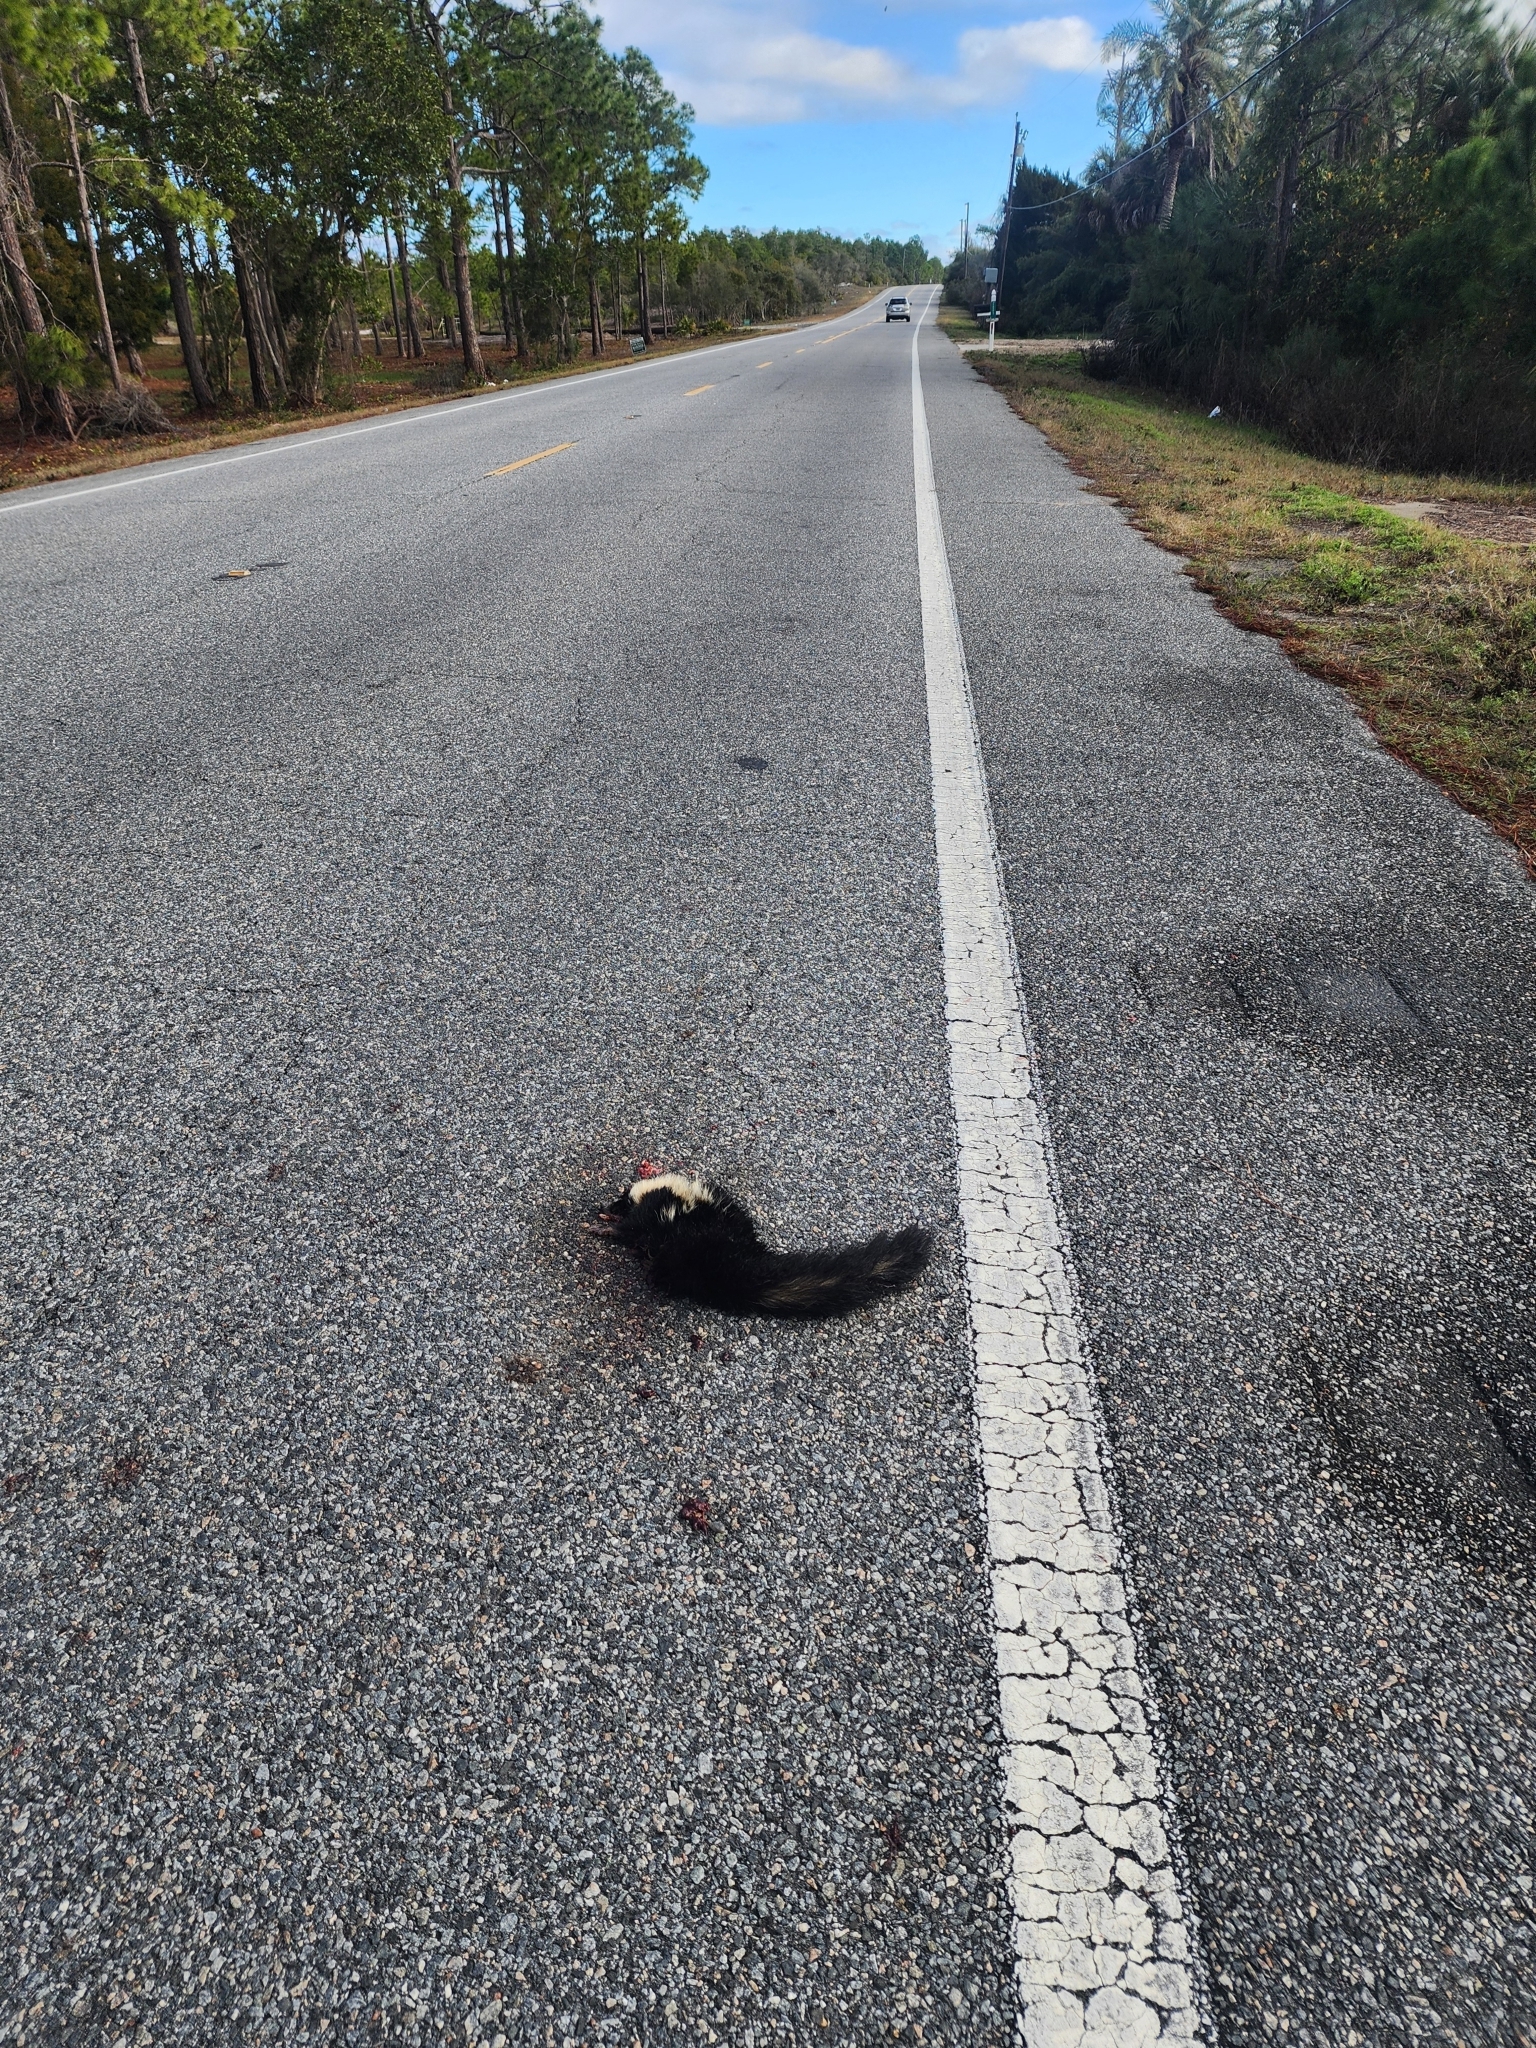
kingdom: Animalia
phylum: Chordata
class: Mammalia
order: Carnivora
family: Mephitidae
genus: Mephitis
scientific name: Mephitis mephitis
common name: Striped skunk
